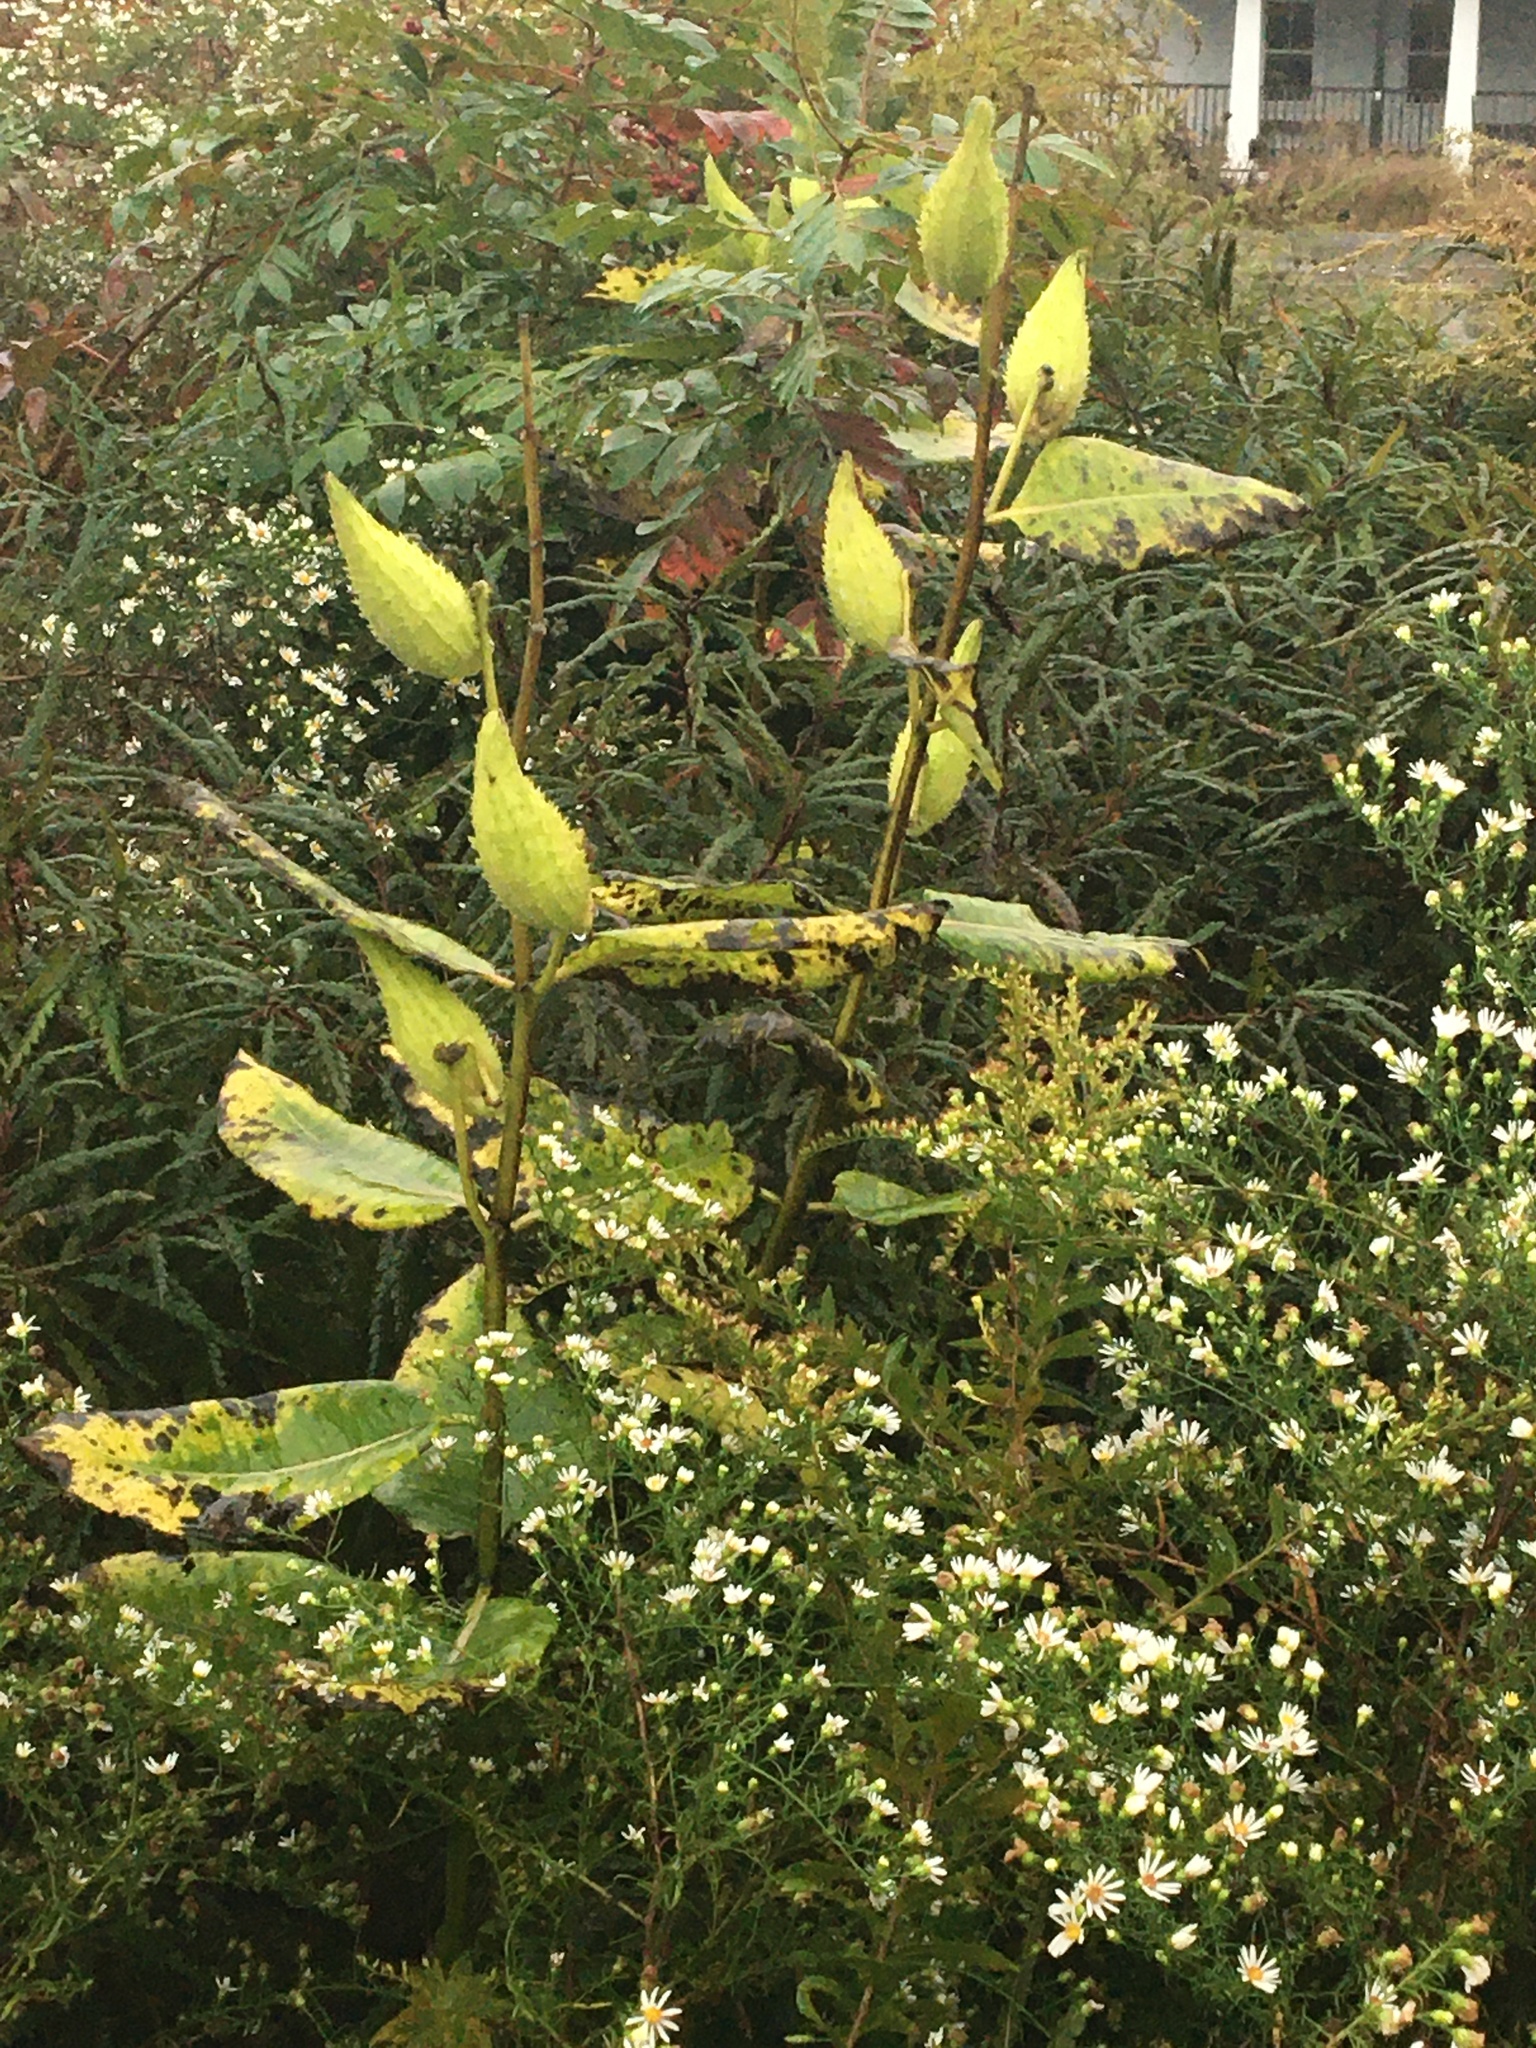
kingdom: Plantae
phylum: Tracheophyta
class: Magnoliopsida
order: Gentianales
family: Apocynaceae
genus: Asclepias
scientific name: Asclepias syriaca
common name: Common milkweed
